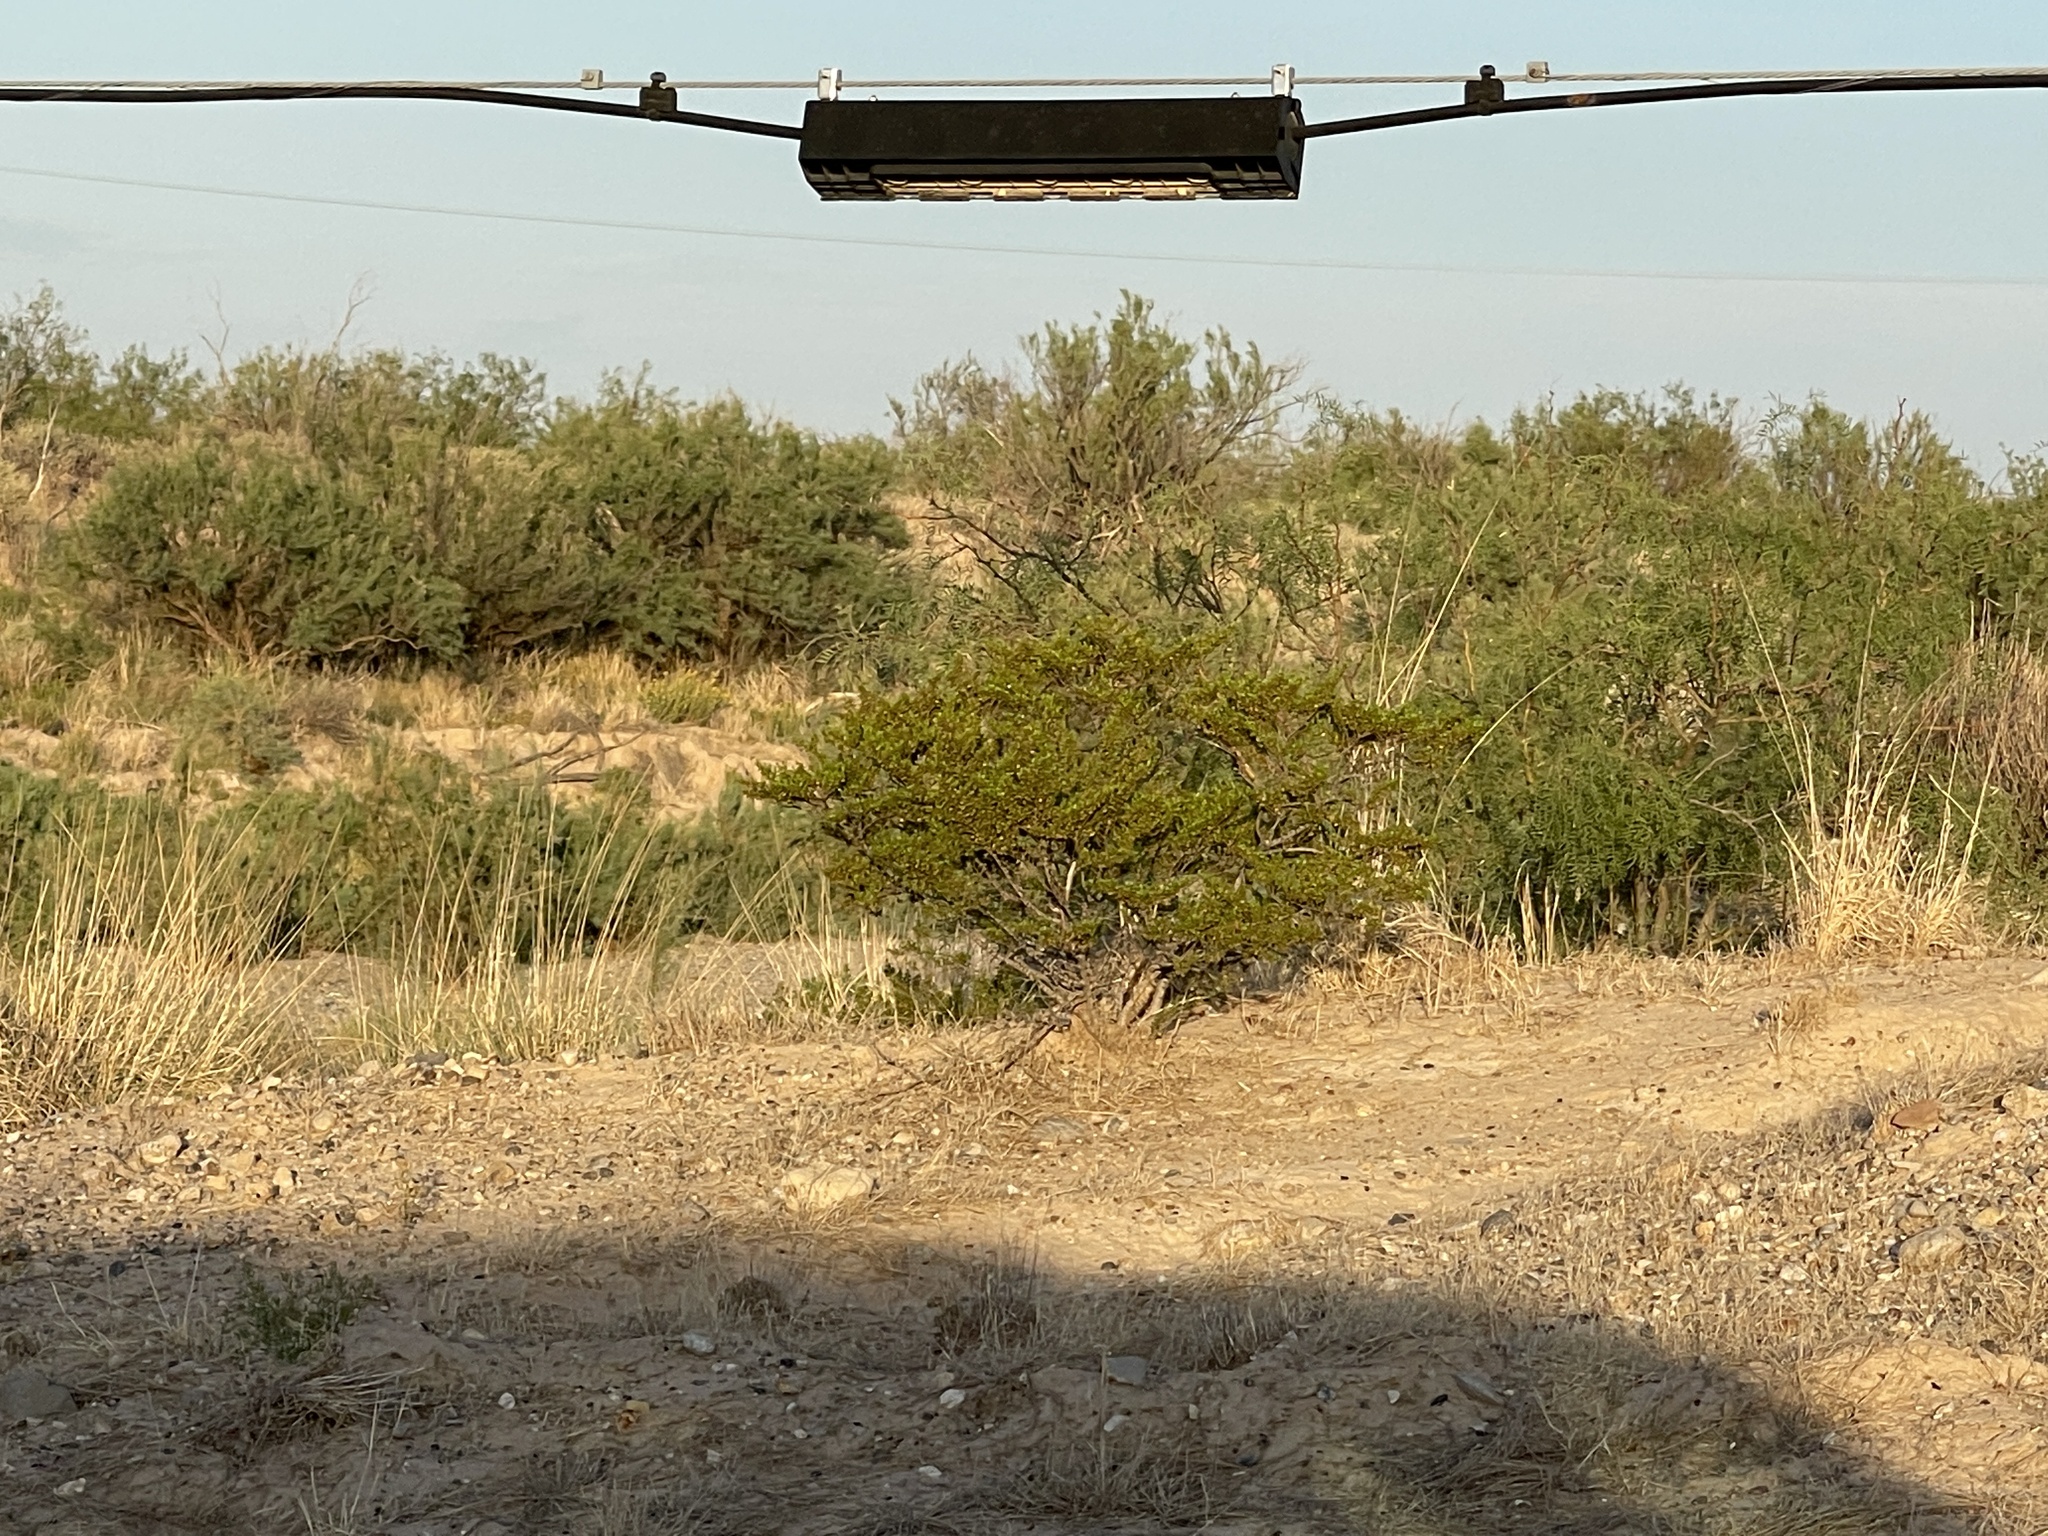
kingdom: Plantae
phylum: Tracheophyta
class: Magnoliopsida
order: Zygophyllales
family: Zygophyllaceae
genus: Larrea
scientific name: Larrea tridentata
